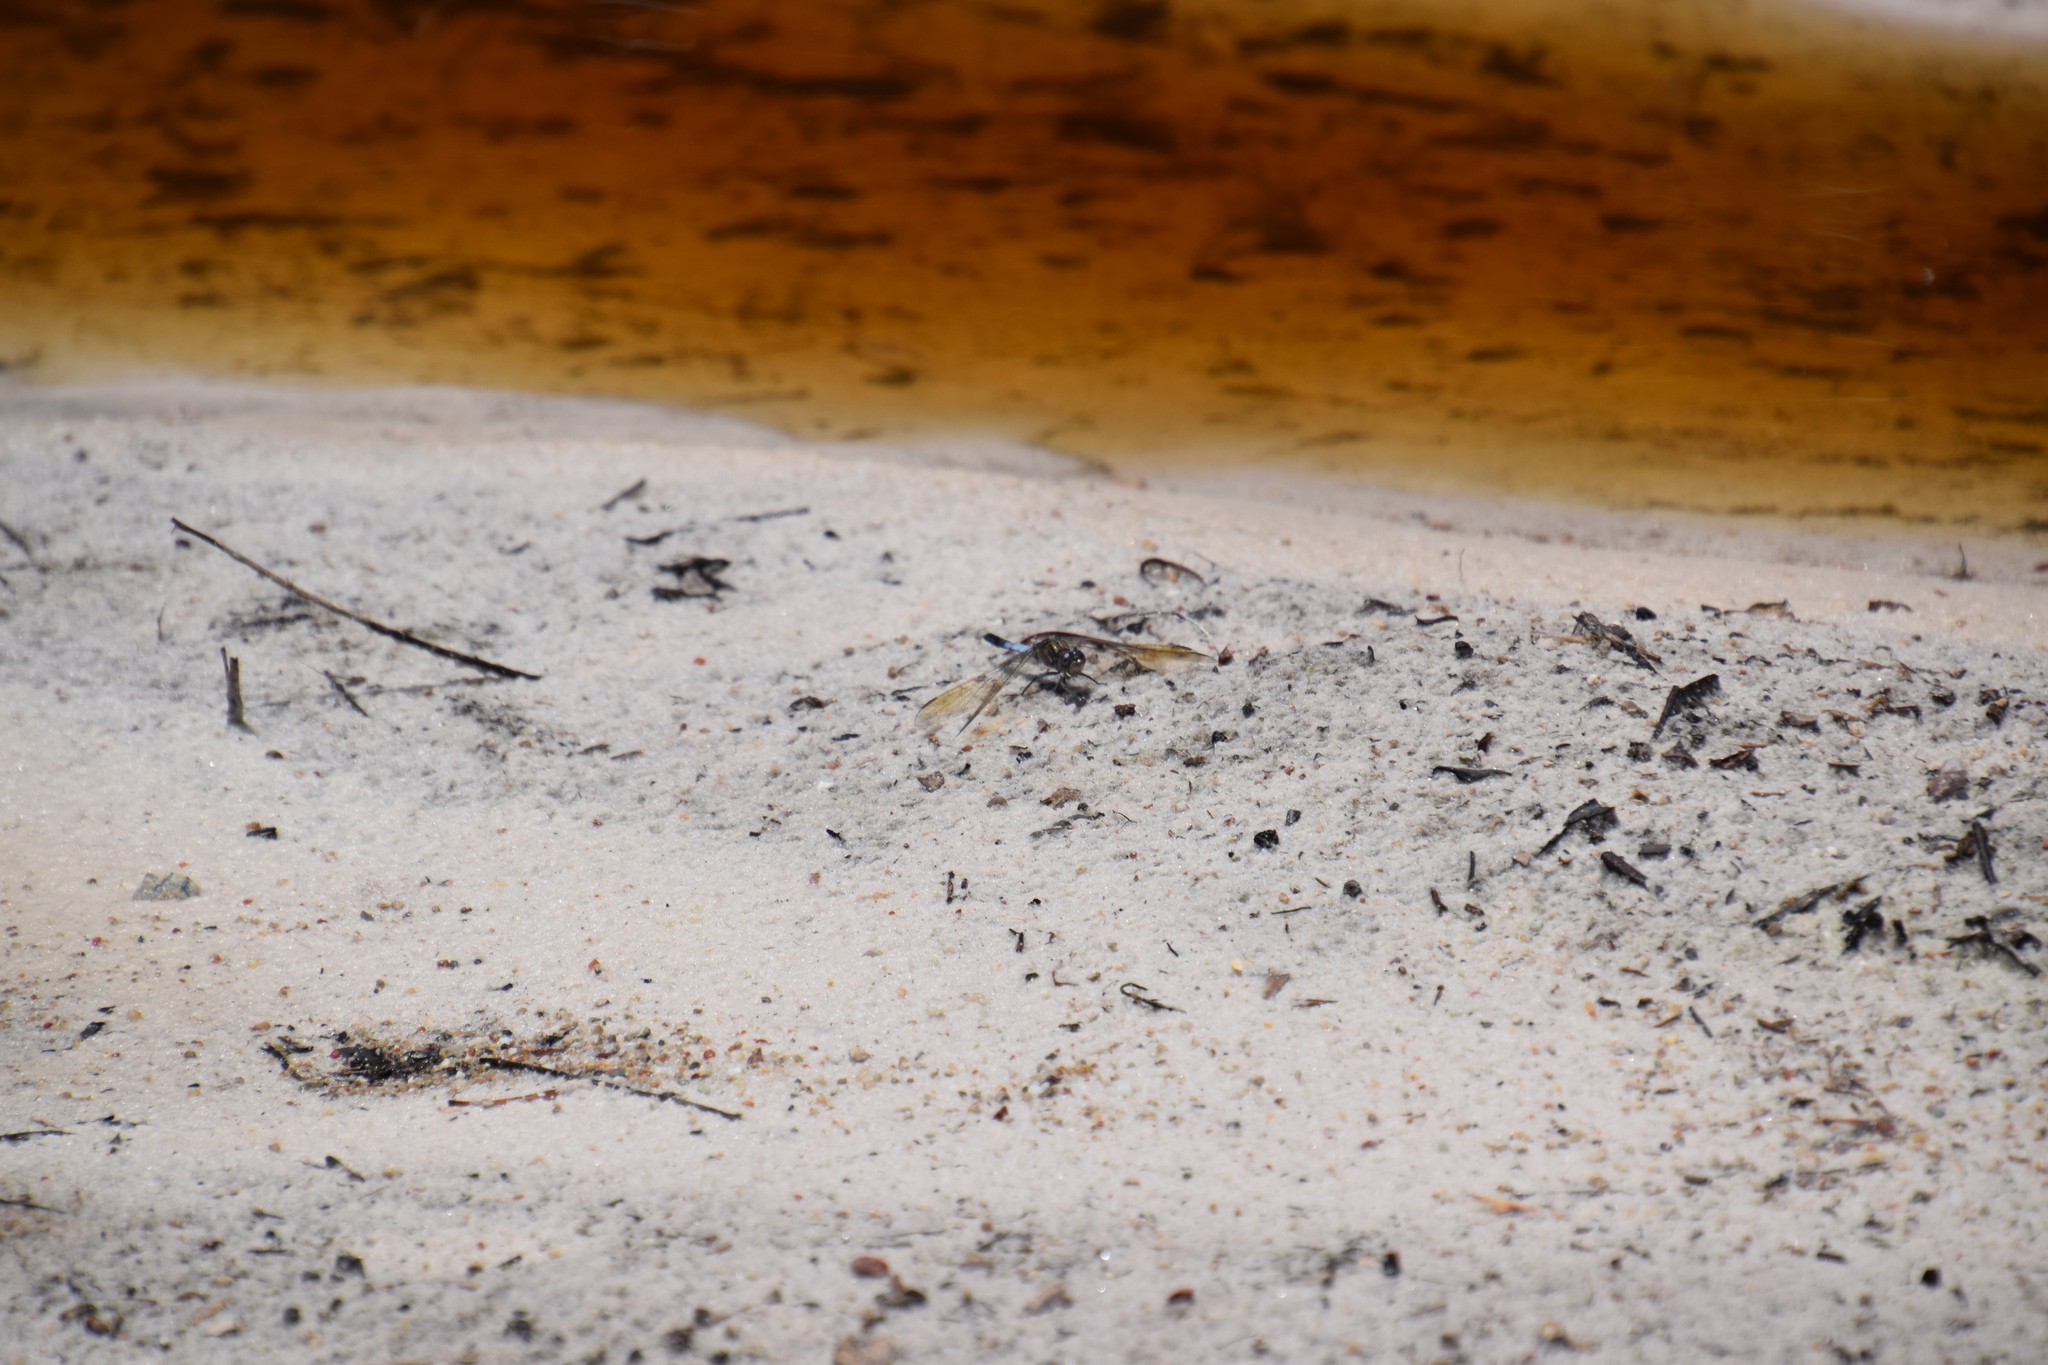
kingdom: Animalia
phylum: Arthropoda
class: Insecta
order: Odonata
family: Libellulidae
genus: Orthetrum
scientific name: Orthetrum caledonicum
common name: Blue skimmer
